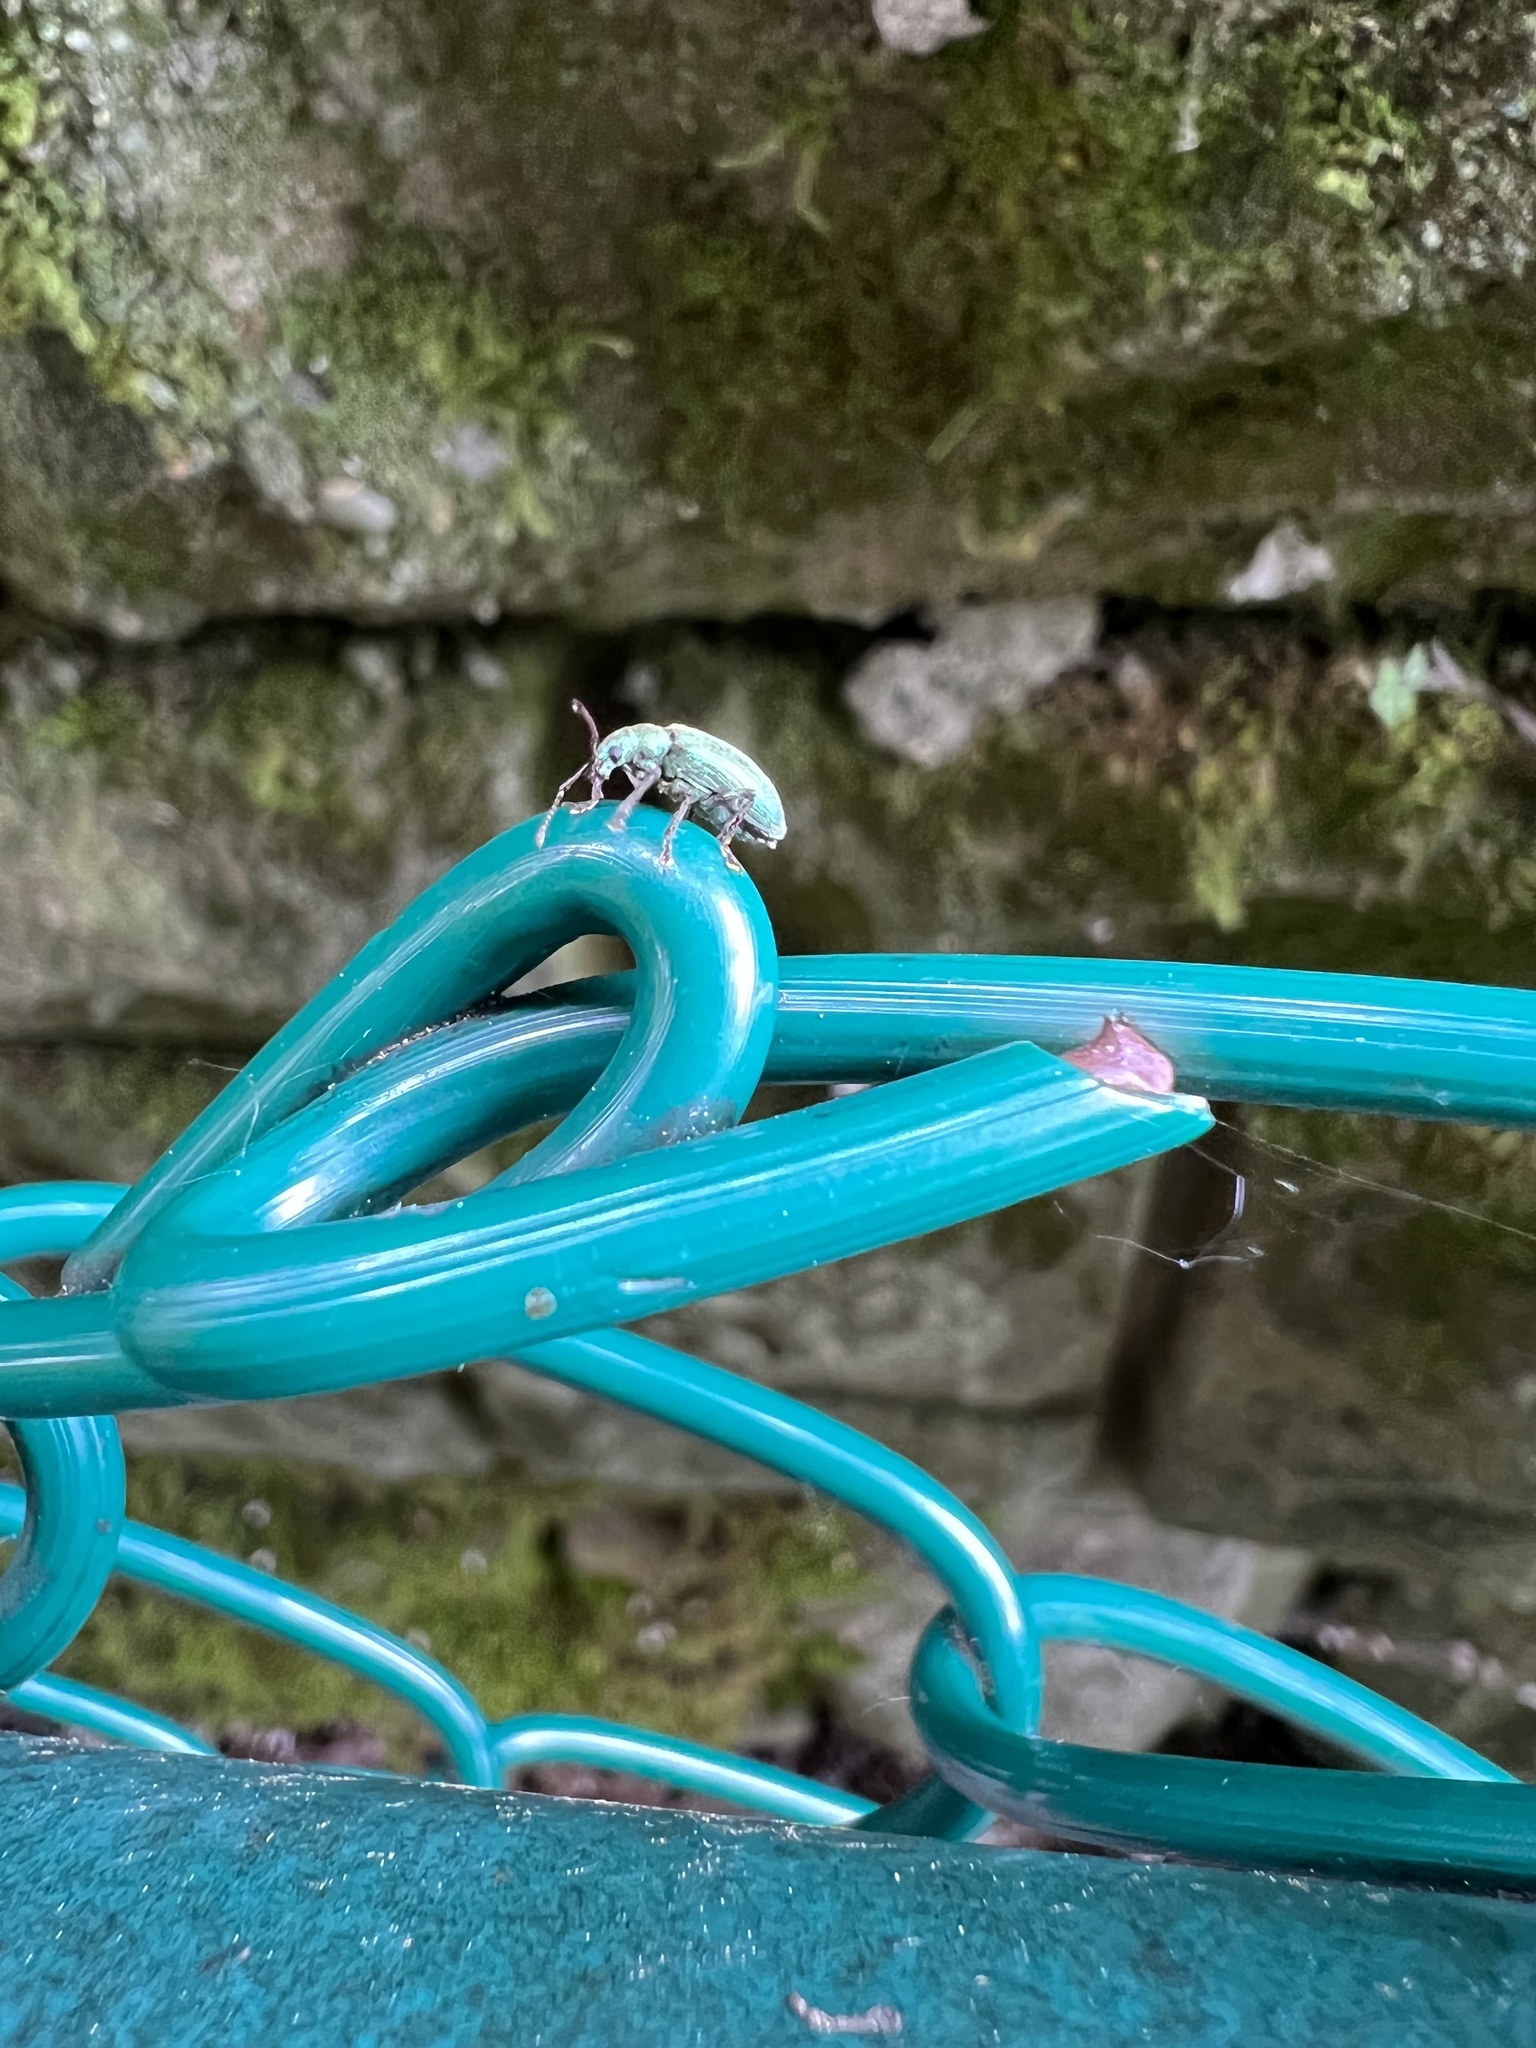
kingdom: Animalia
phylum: Arthropoda
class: Insecta
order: Coleoptera
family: Curculionidae
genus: Parascythopus
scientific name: Parascythopus intrusus
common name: Weevil
